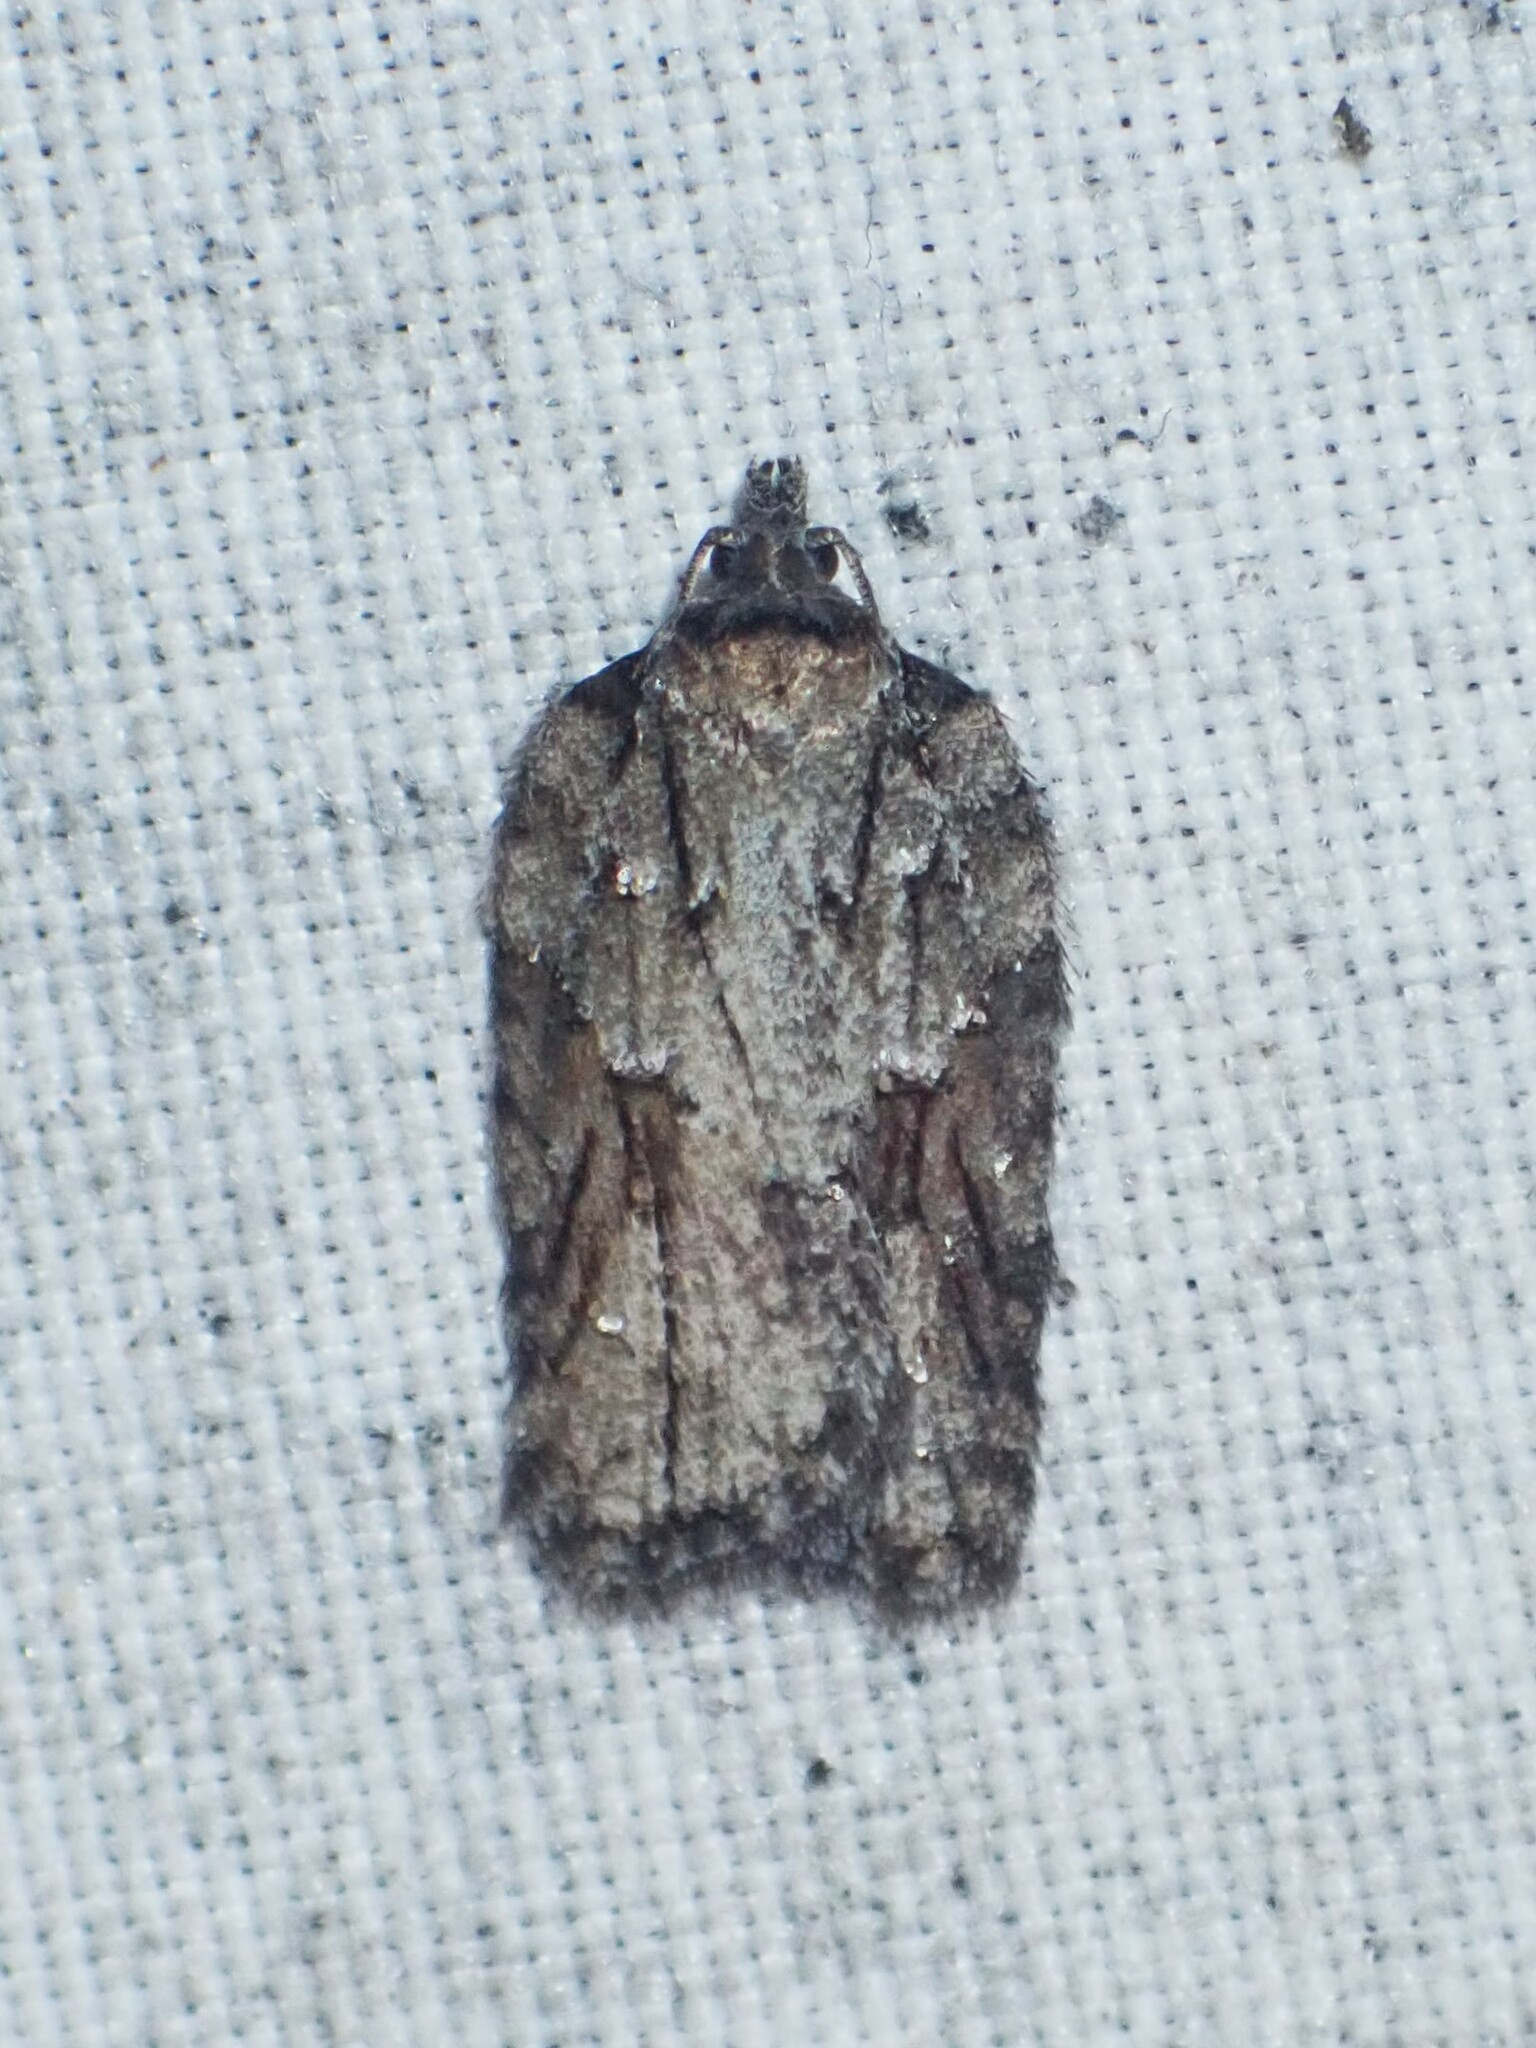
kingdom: Animalia
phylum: Arthropoda
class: Insecta
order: Lepidoptera
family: Tortricidae
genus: Acleris
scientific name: Acleris ptychogrammos
